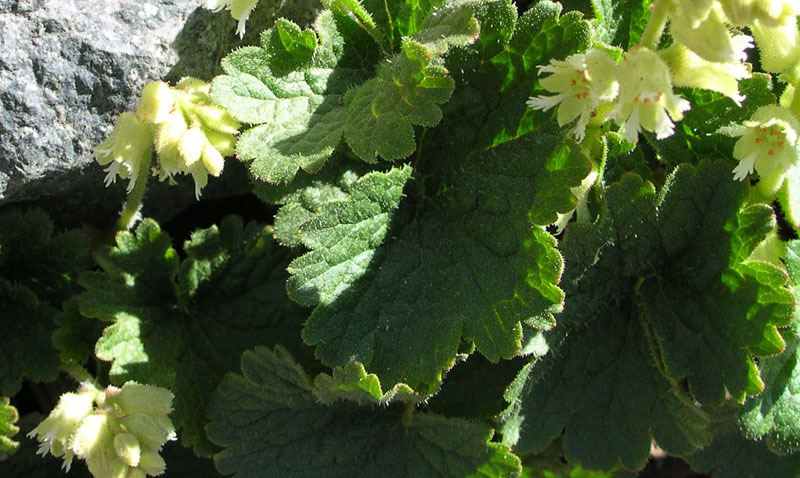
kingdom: Plantae
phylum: Tracheophyta
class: Magnoliopsida
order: Saxifragales
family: Saxifragaceae
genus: Elmera
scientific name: Elmera racemosa
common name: Elmera
